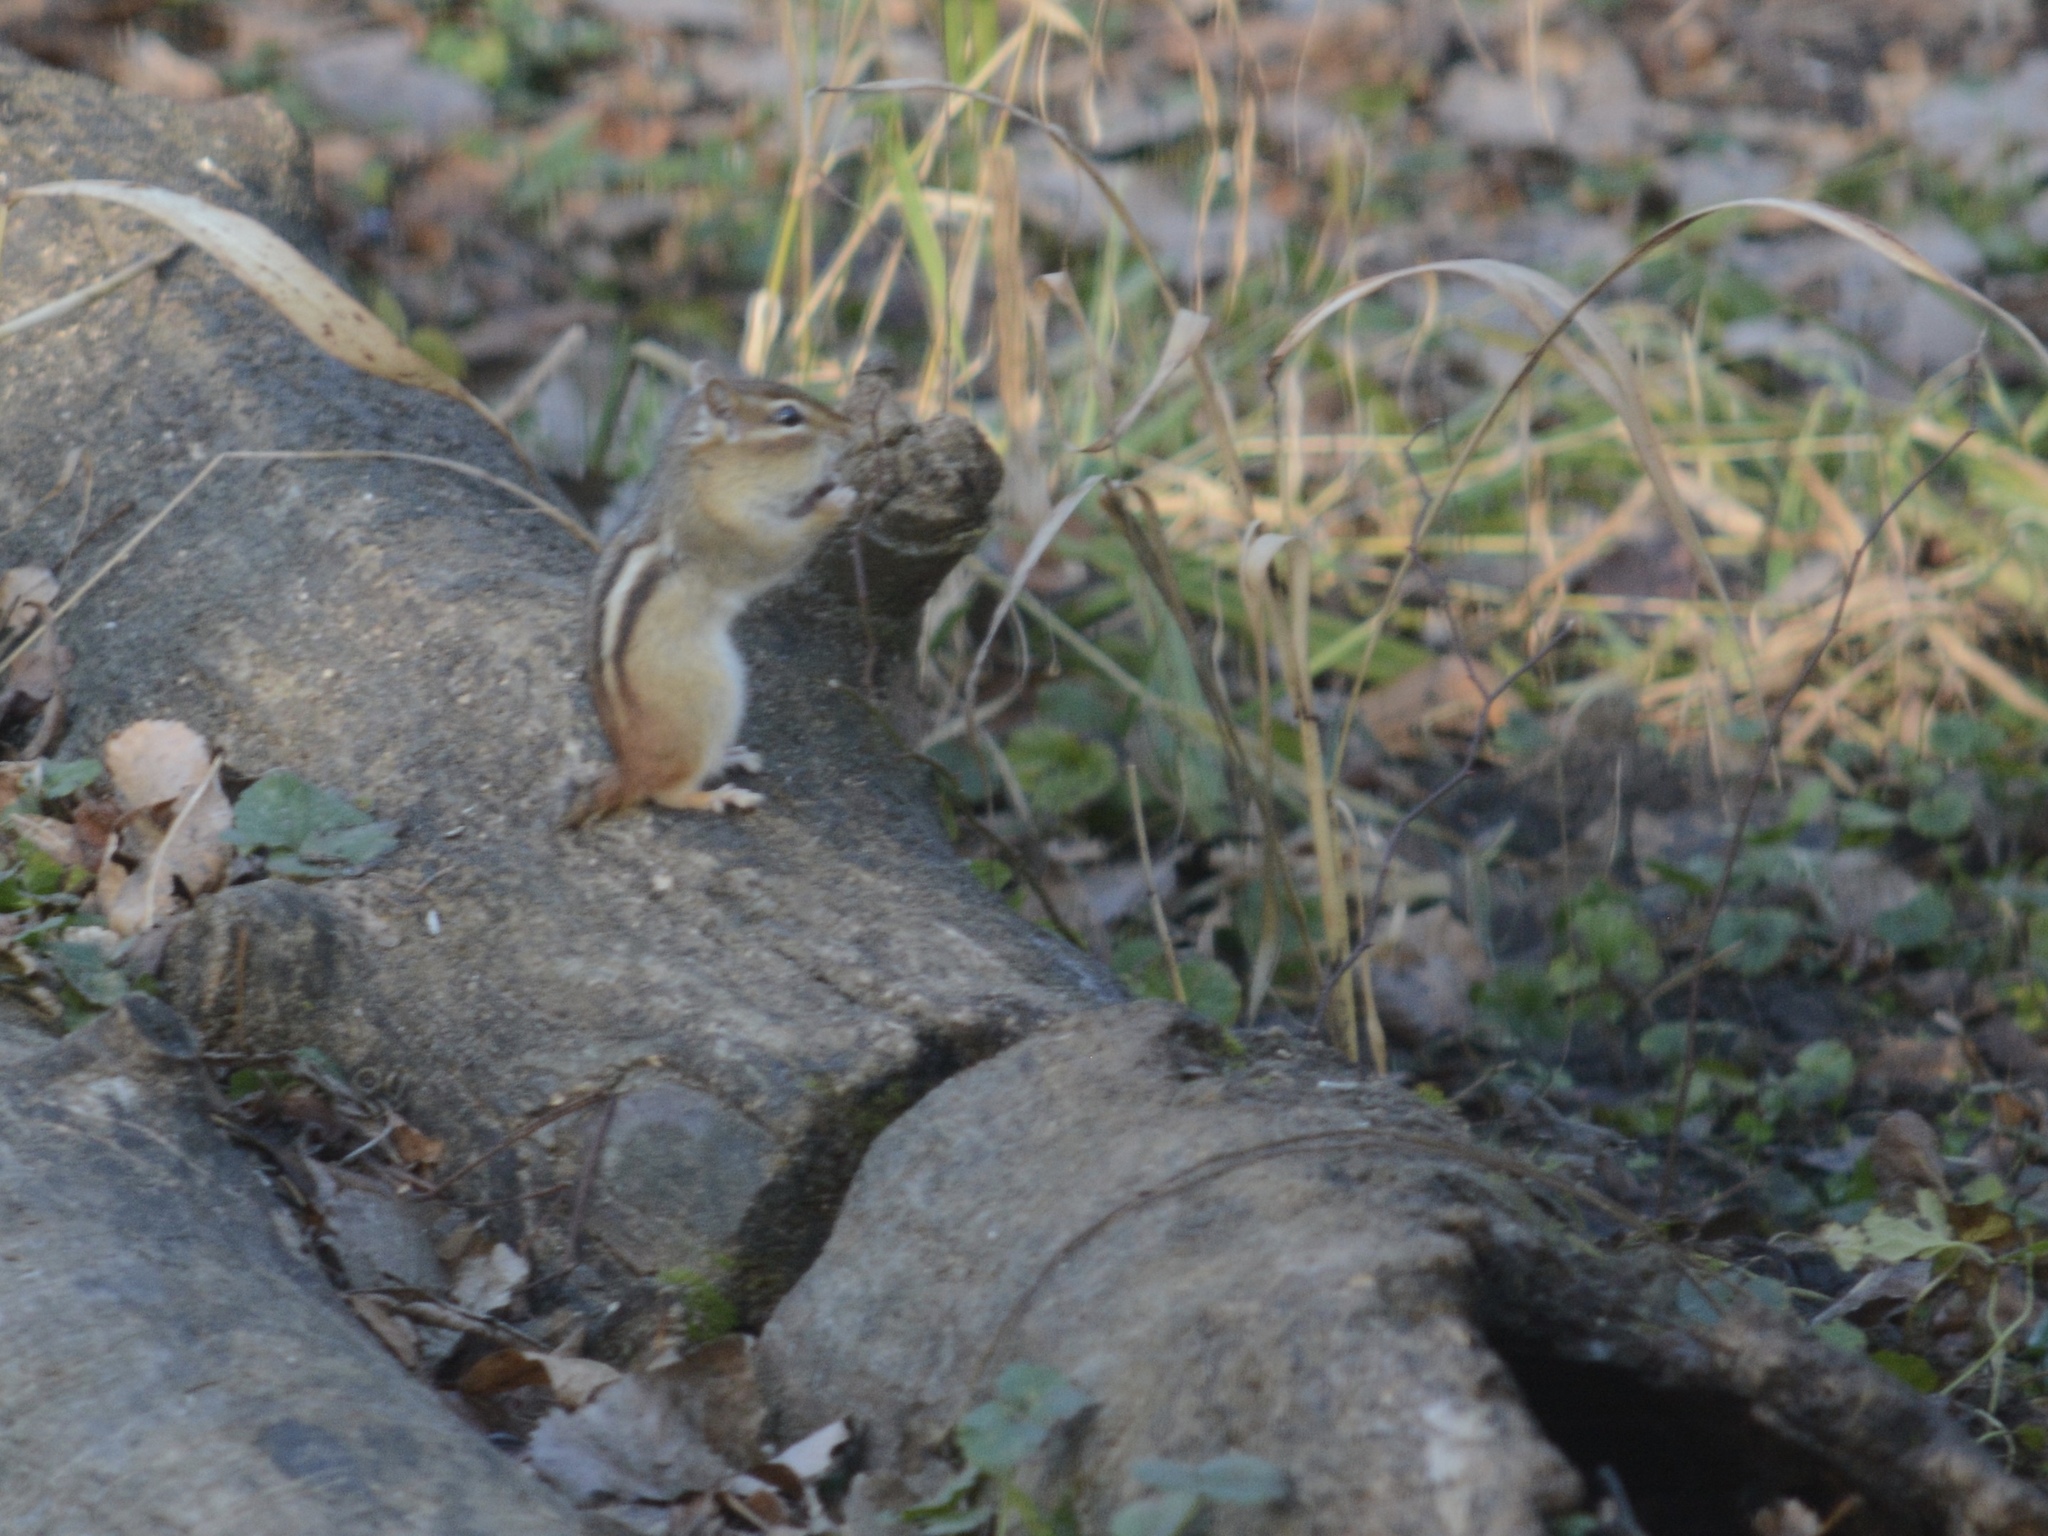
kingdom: Animalia
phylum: Chordata
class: Mammalia
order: Rodentia
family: Sciuridae
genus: Tamias
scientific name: Tamias striatus
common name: Eastern chipmunk
